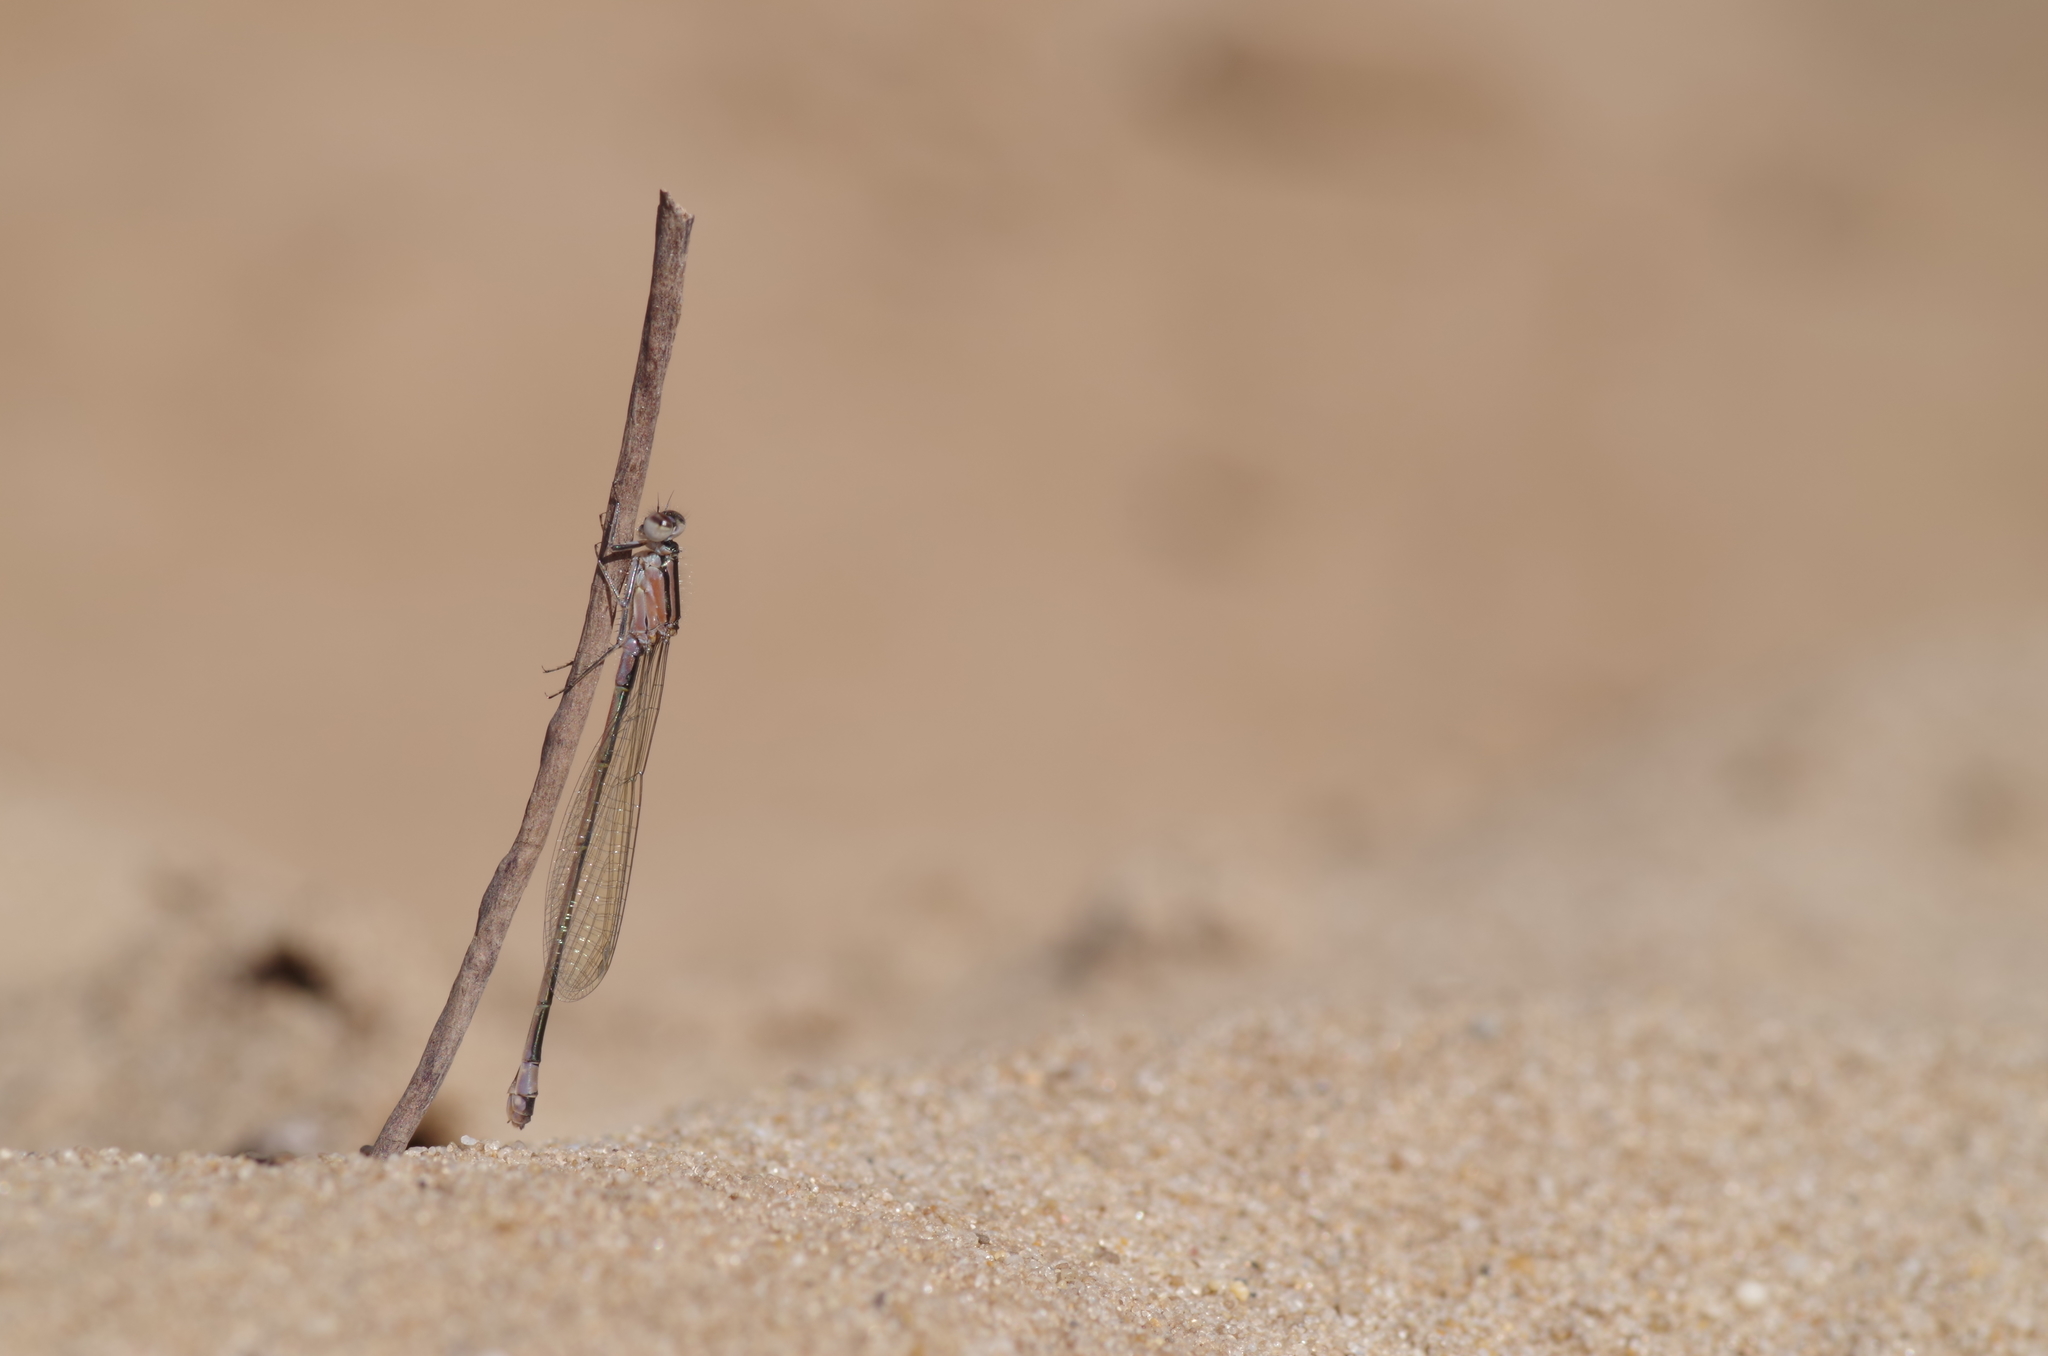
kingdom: Animalia
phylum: Arthropoda
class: Insecta
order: Odonata
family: Coenagrionidae
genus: Ischnura
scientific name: Ischnura elegans
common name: Blue-tailed damselfly
